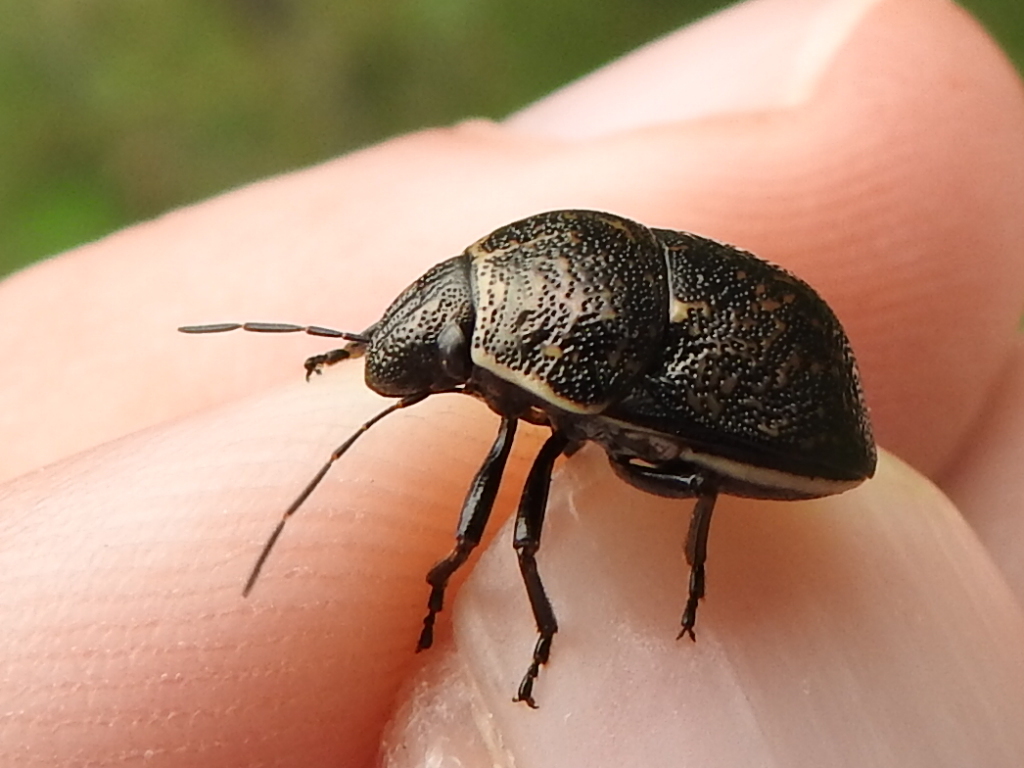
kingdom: Animalia
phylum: Arthropoda
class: Insecta
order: Hemiptera
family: Scutelleridae
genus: Orsilochides
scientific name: Orsilochides guttata
